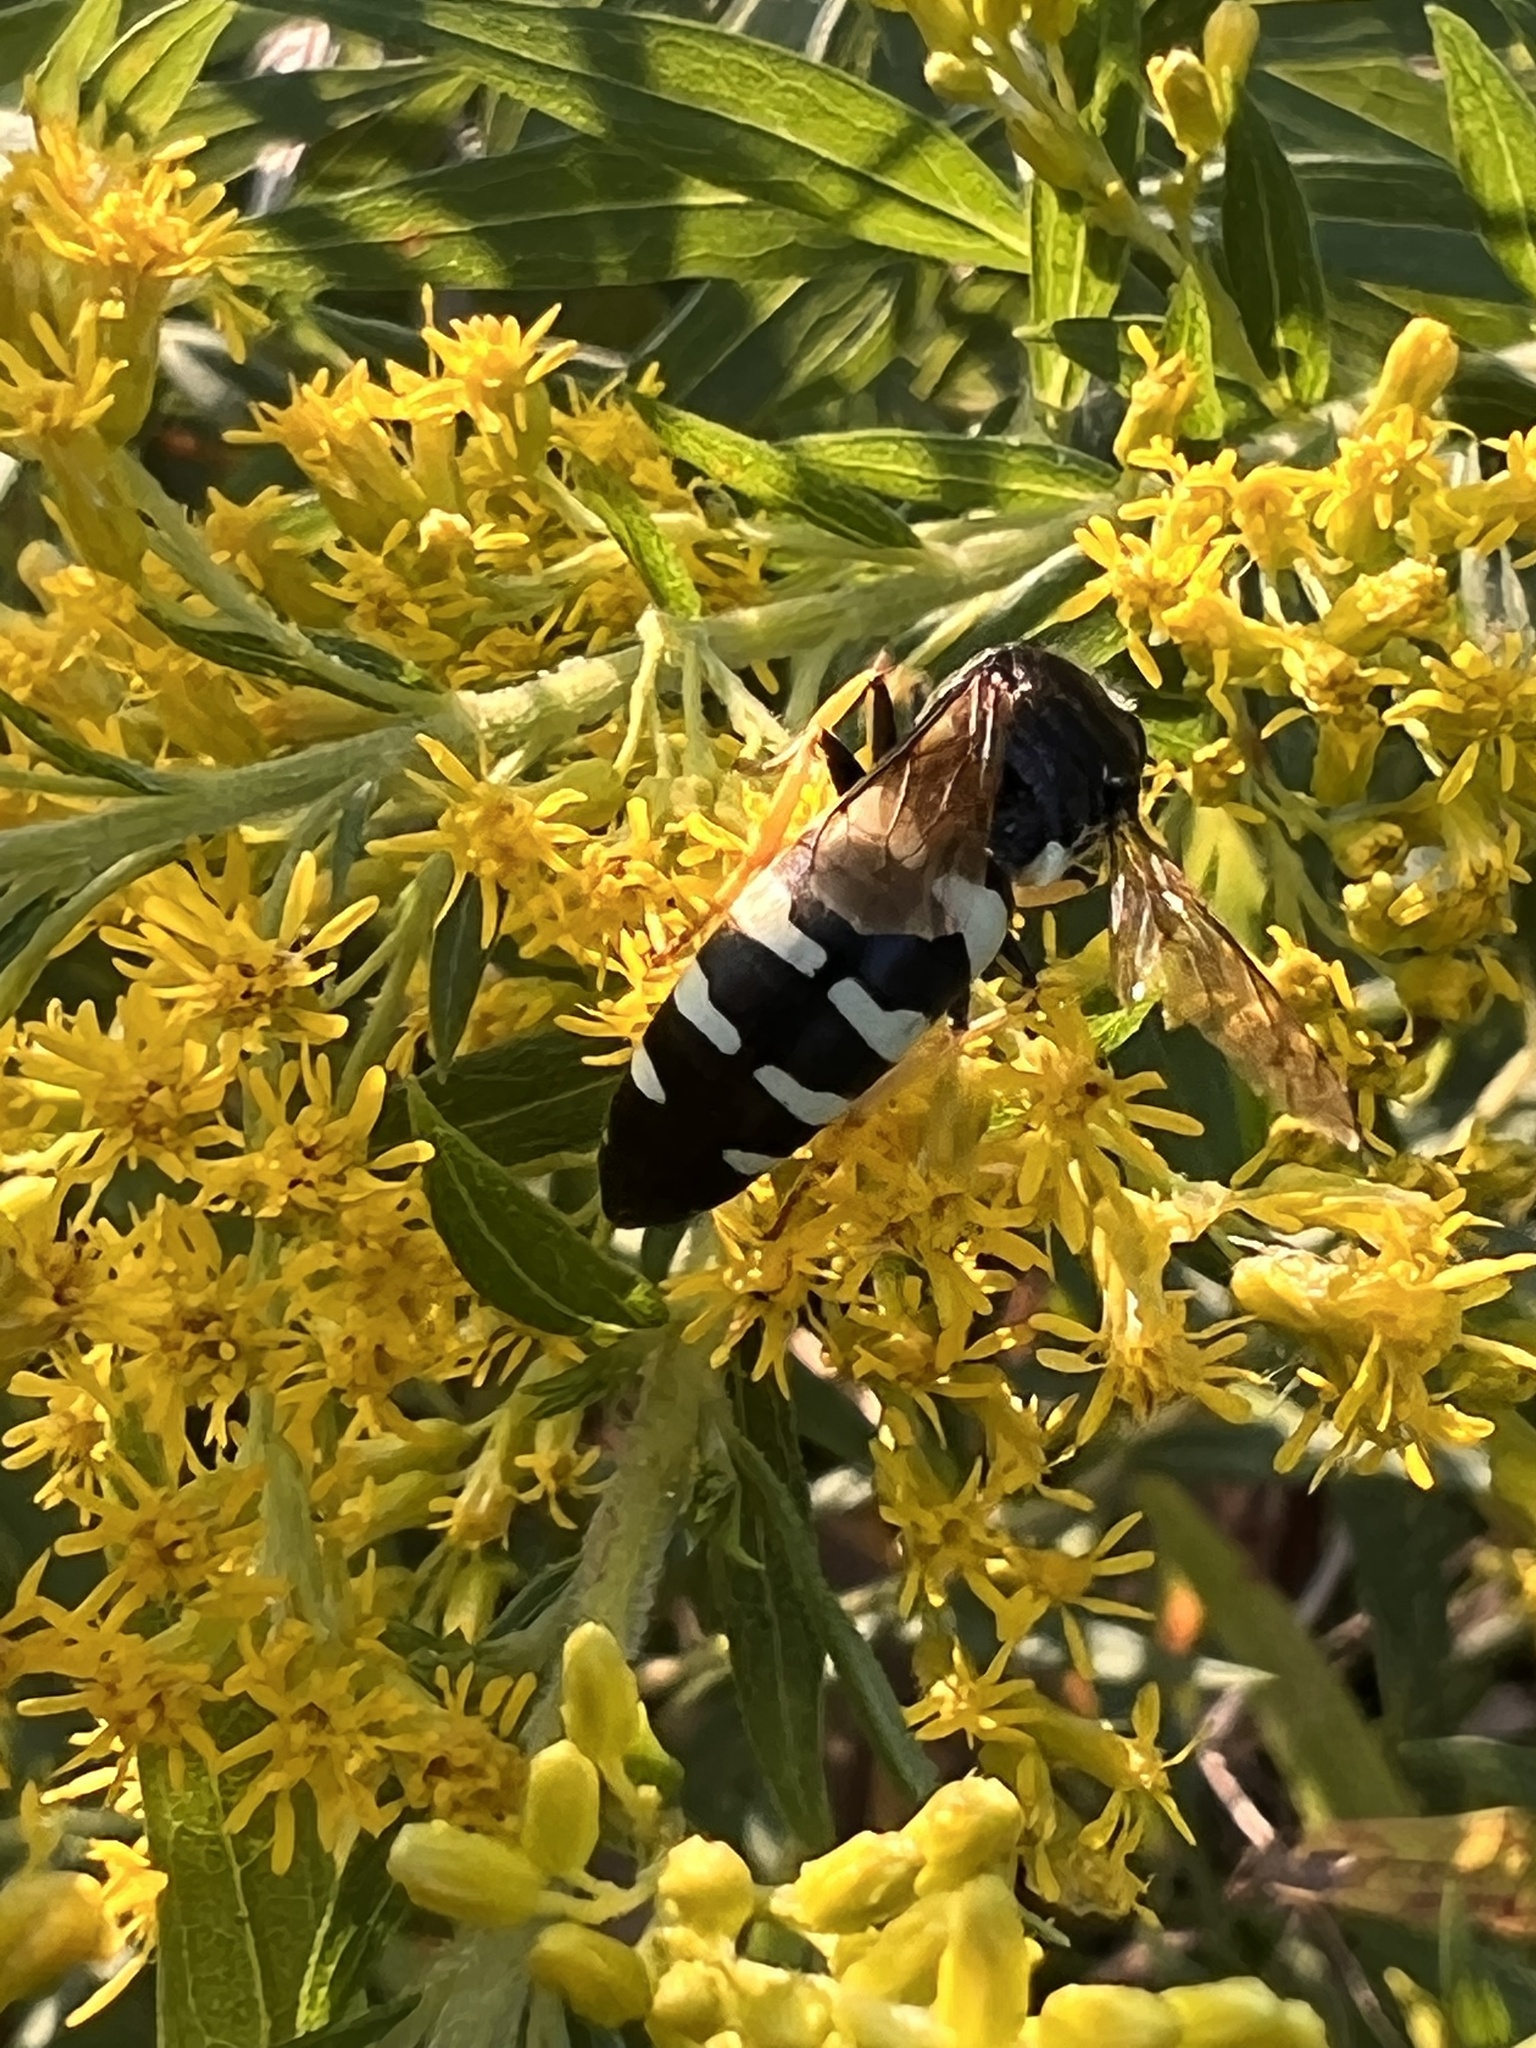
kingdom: Animalia
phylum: Arthropoda
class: Insecta
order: Hymenoptera
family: Crabronidae
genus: Bicyrtes
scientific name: Bicyrtes quadrifasciatus
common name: Four-banded stink bug hunter wasp
